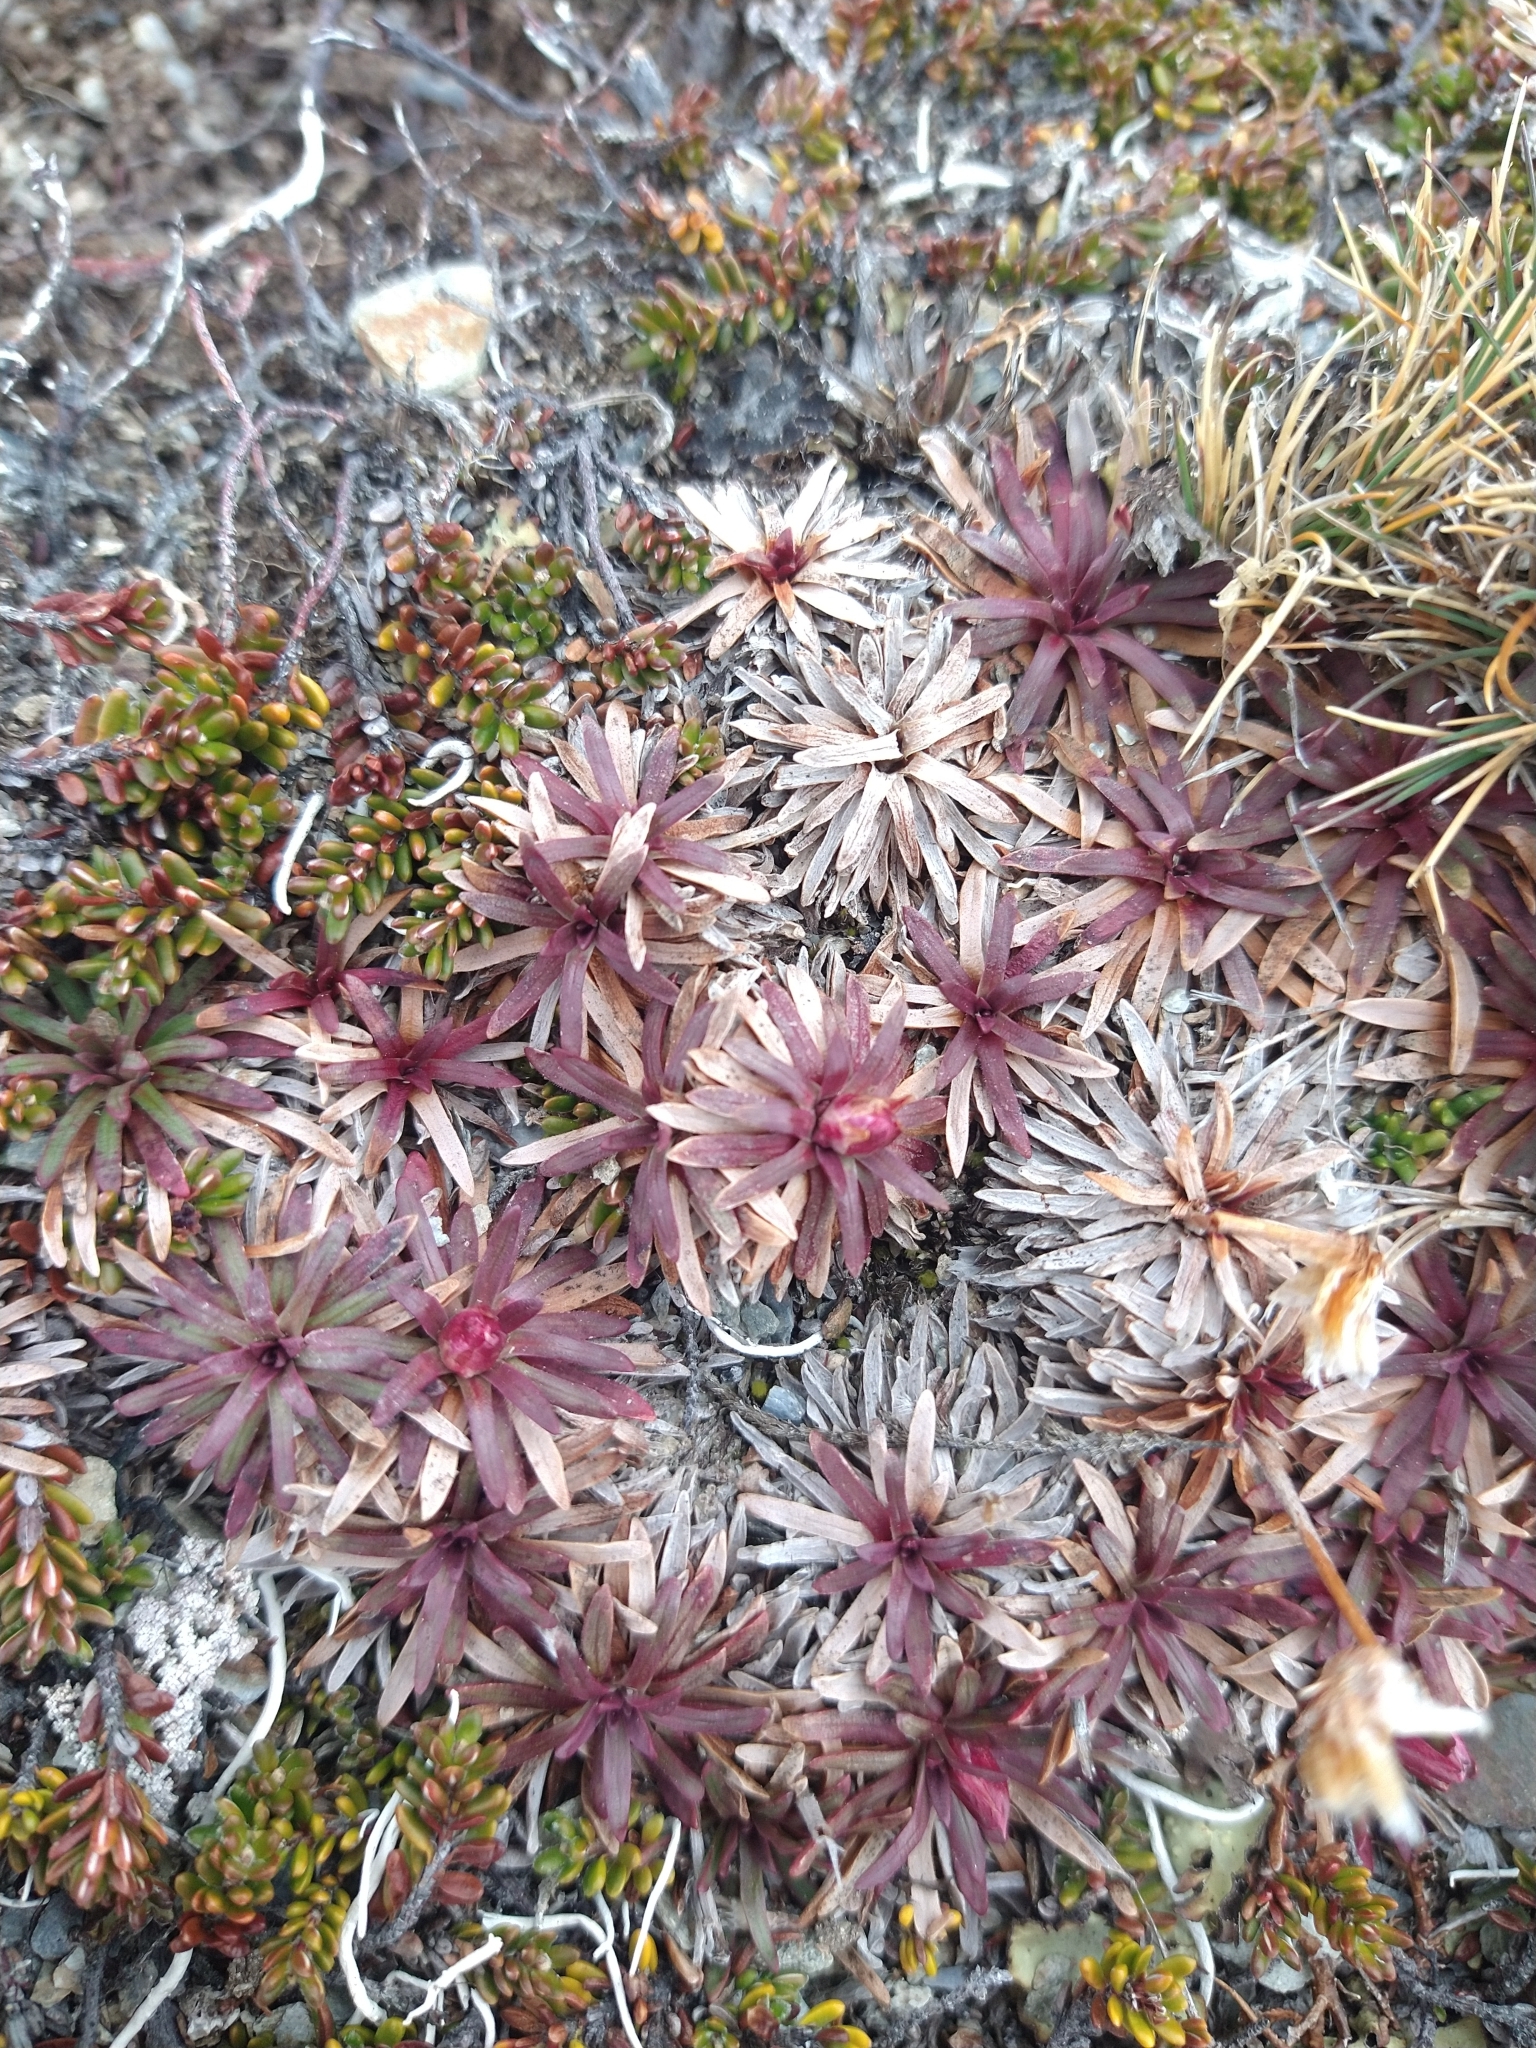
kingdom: Plantae
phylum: Tracheophyta
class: Magnoliopsida
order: Caryophyllales
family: Plumbaginaceae
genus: Armeria
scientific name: Armeria curvifolia
